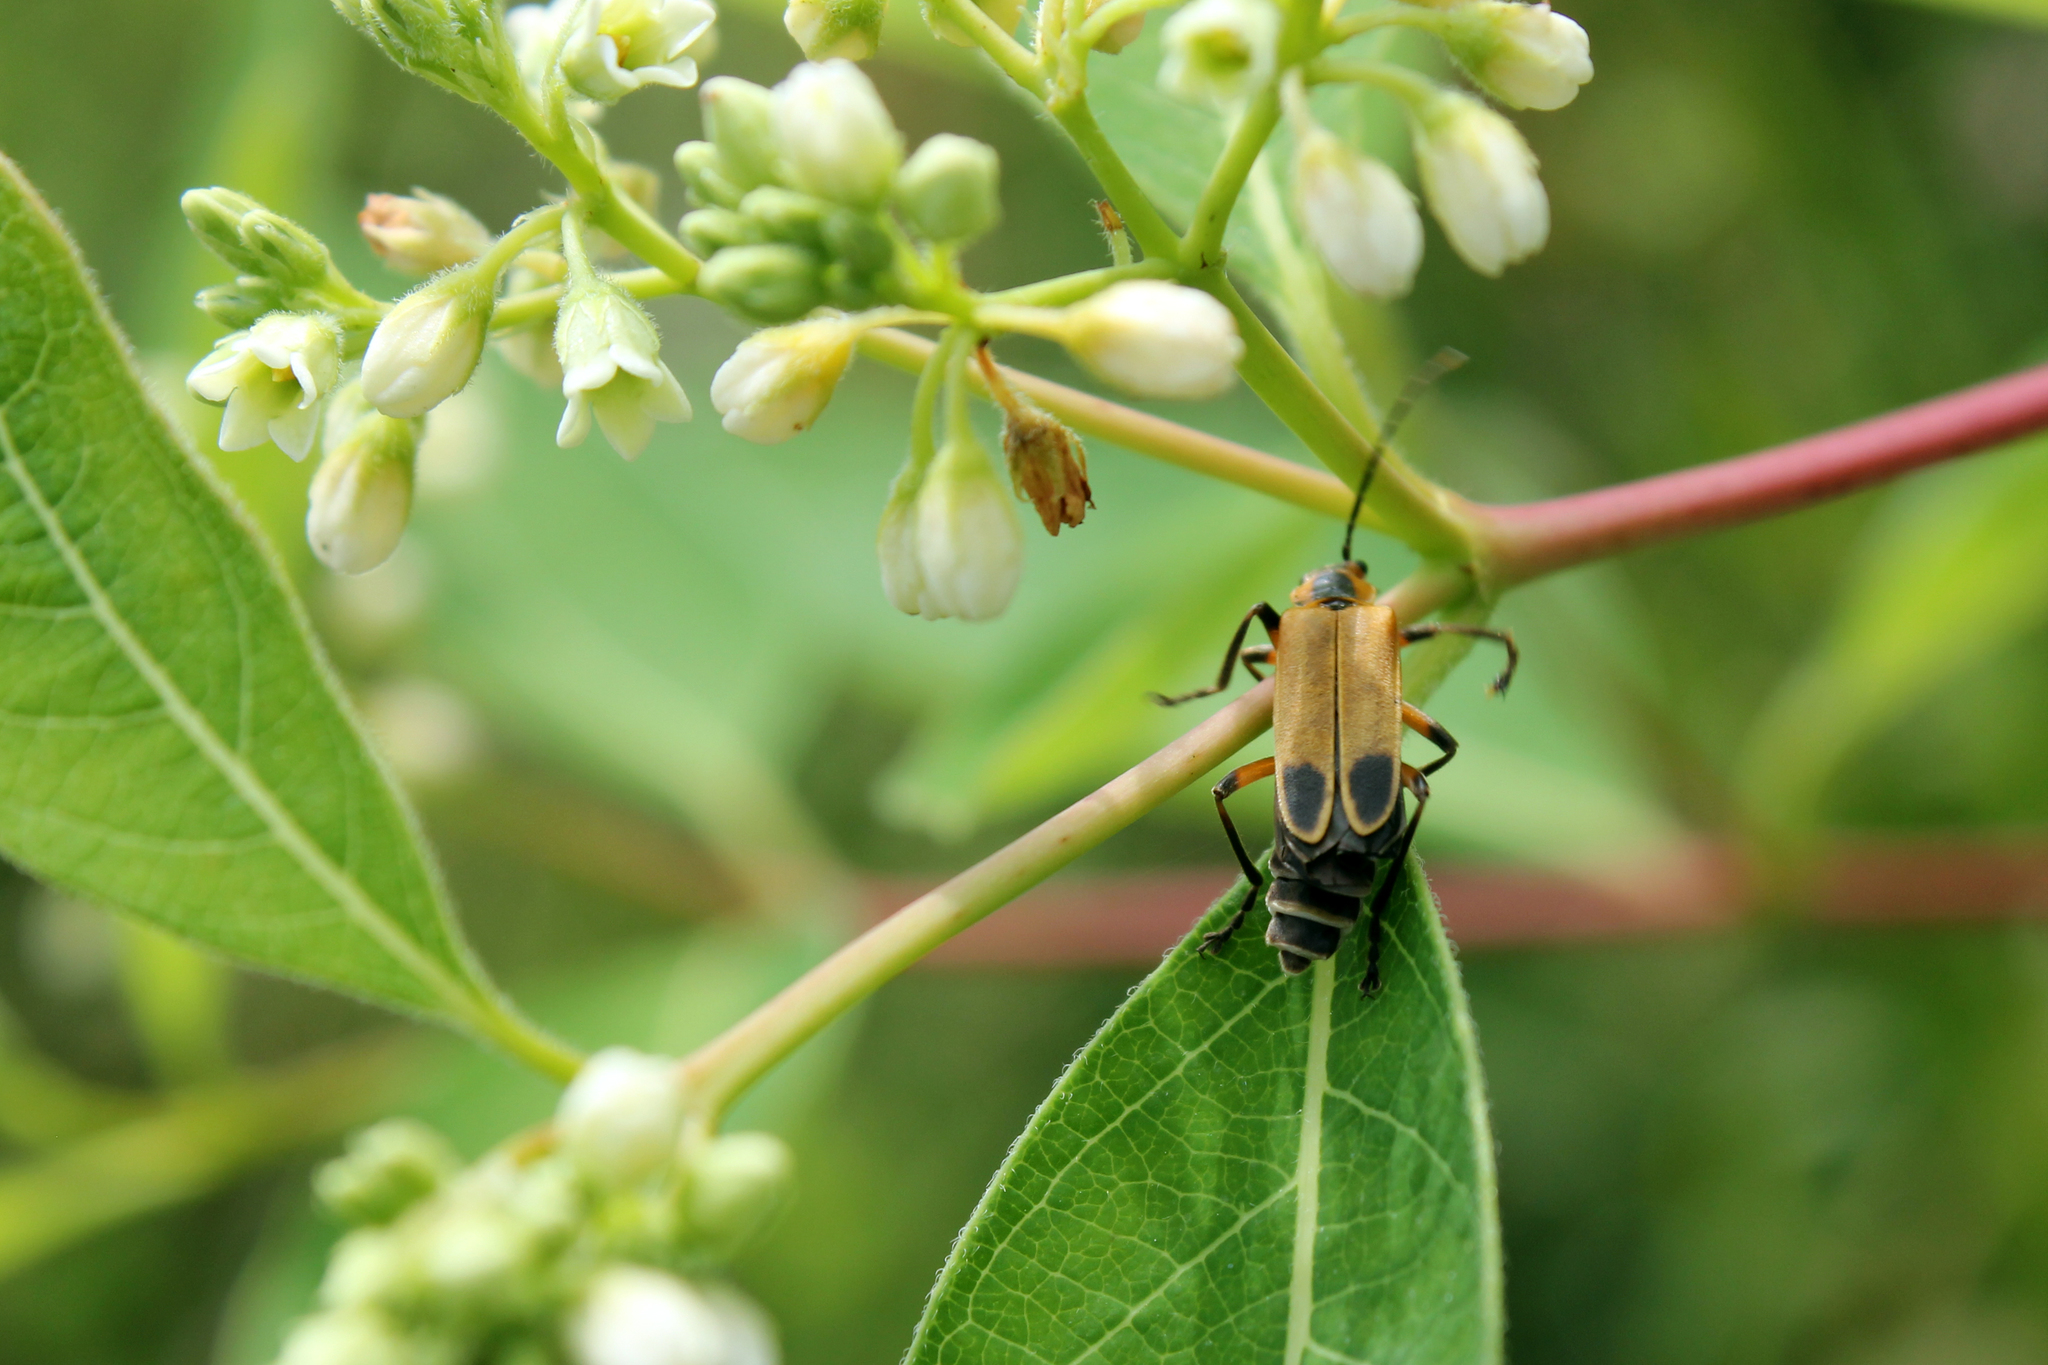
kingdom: Animalia
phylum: Arthropoda
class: Insecta
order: Coleoptera
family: Cantharidae
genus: Chauliognathus
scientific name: Chauliognathus marginatus
